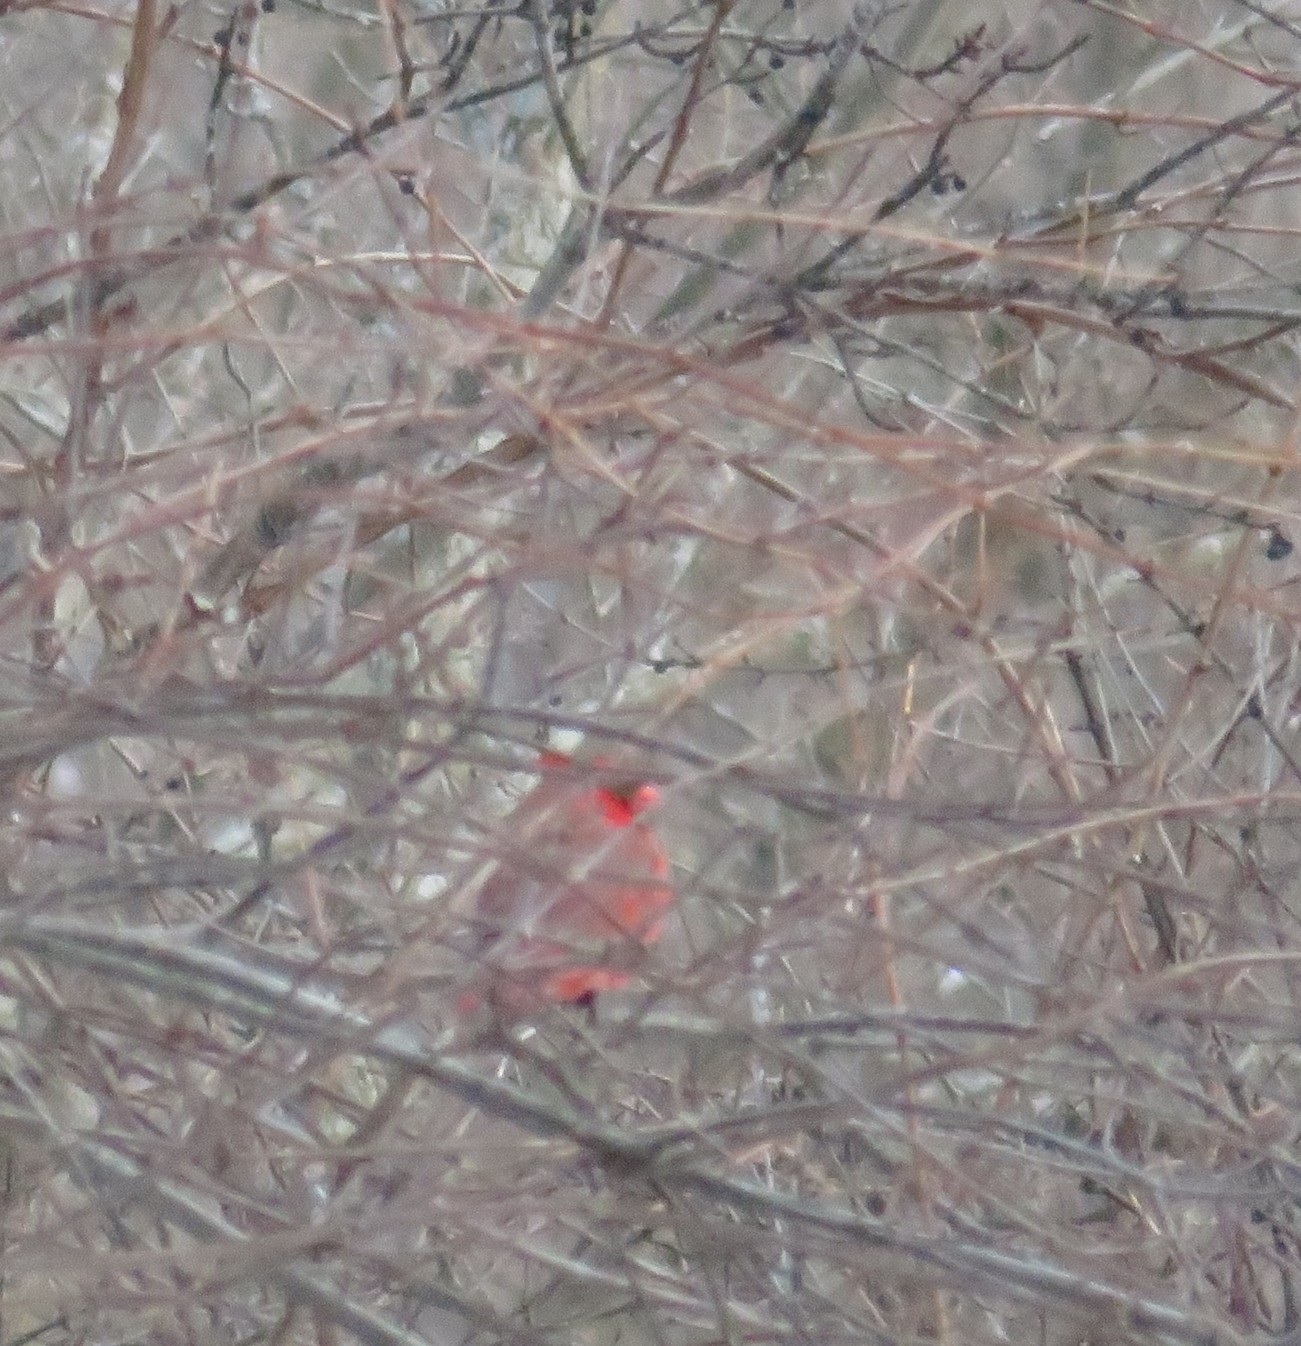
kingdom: Animalia
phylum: Chordata
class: Aves
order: Passeriformes
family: Cardinalidae
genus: Cardinalis
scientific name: Cardinalis cardinalis
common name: Northern cardinal
